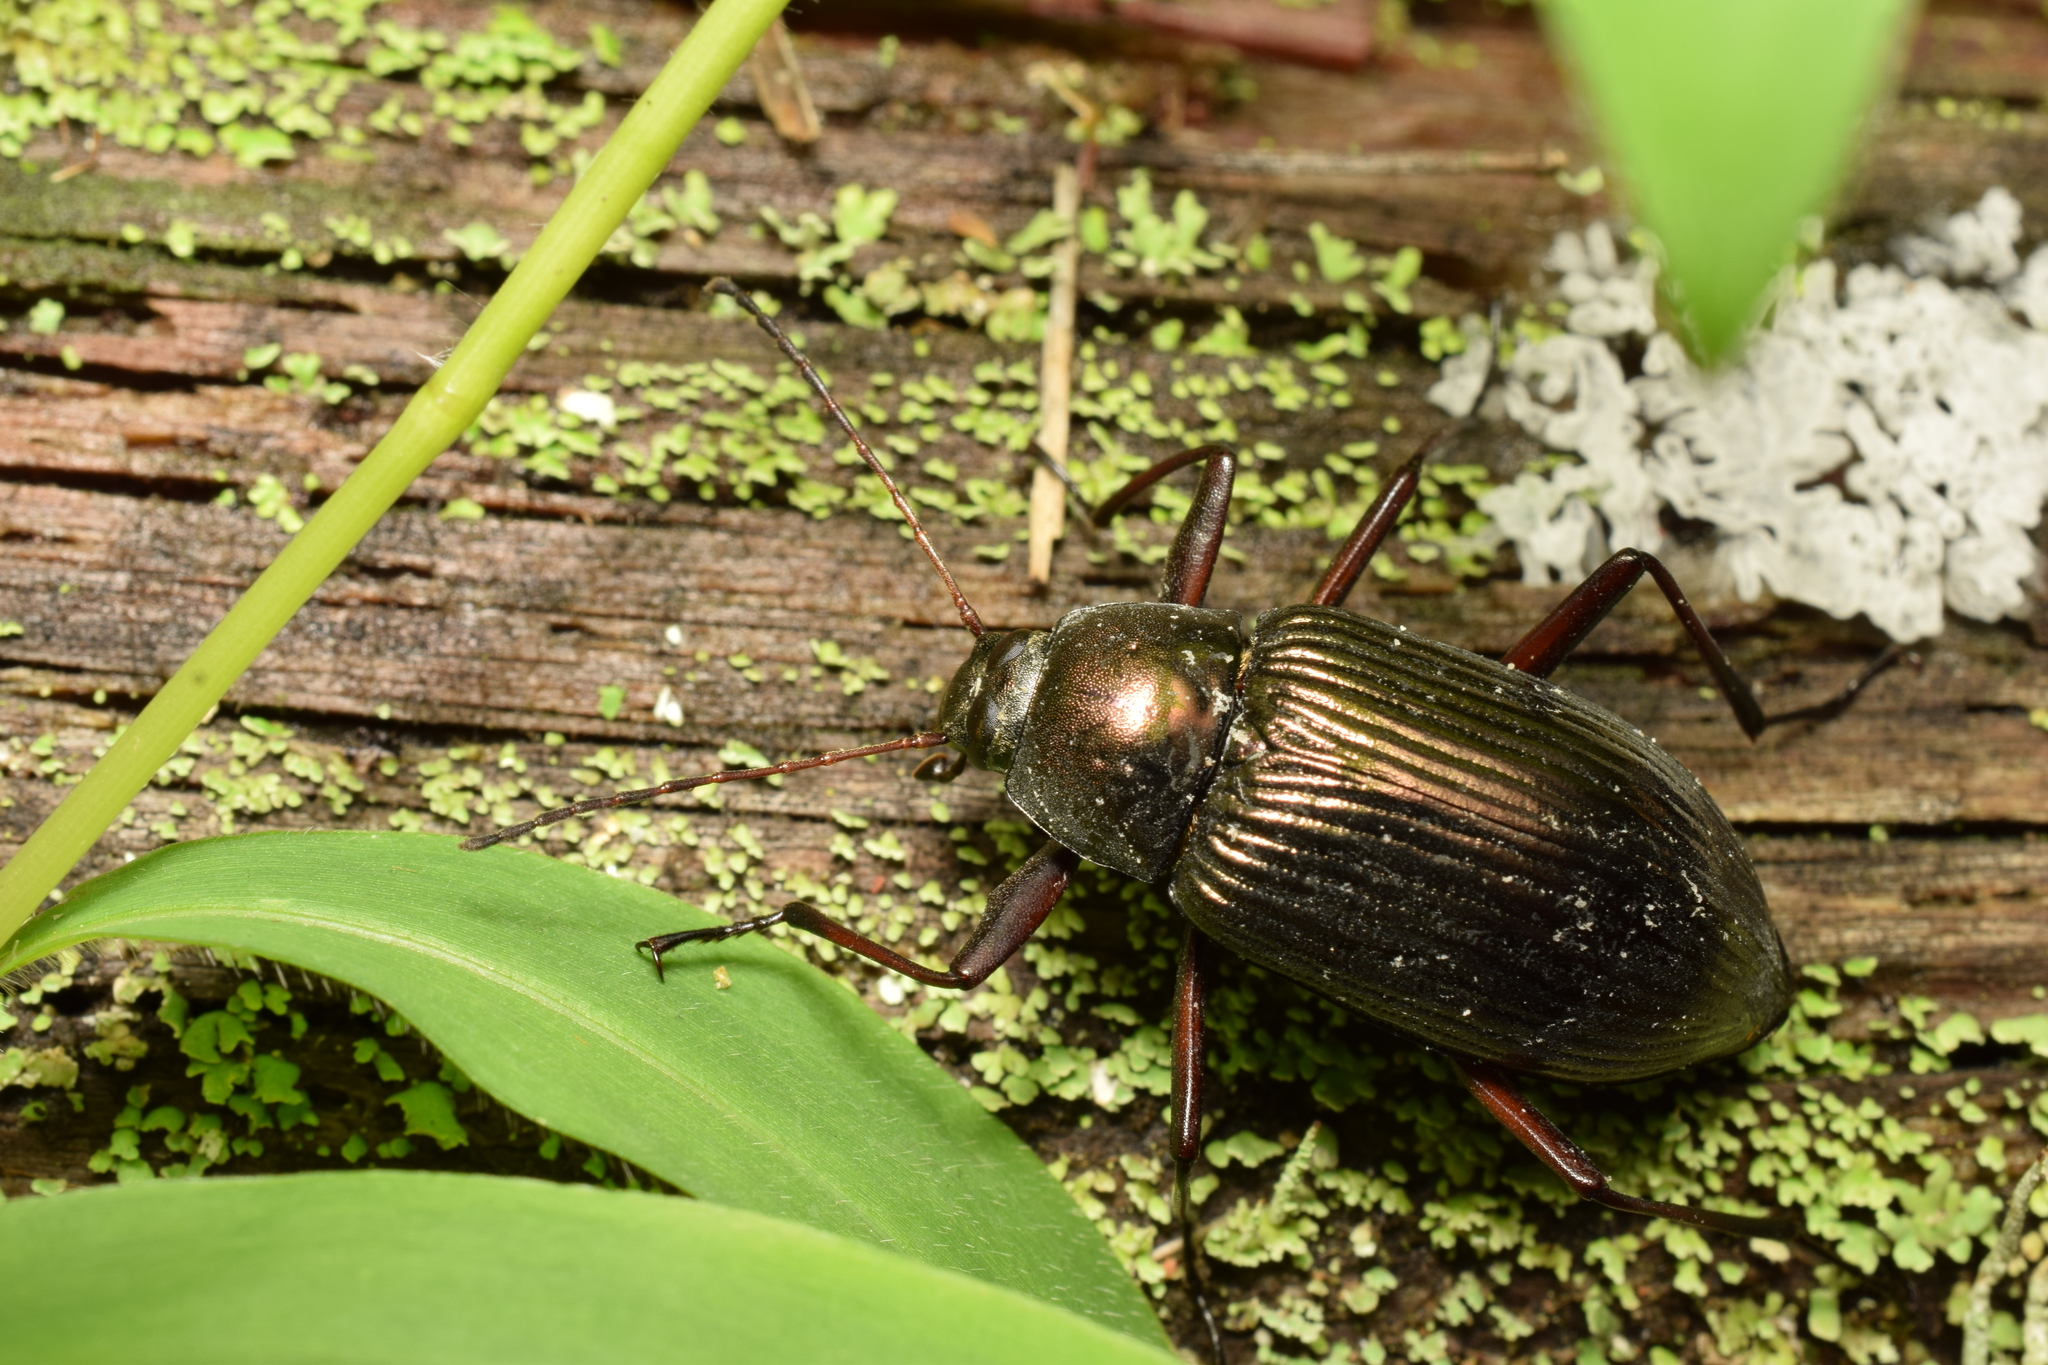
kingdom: Animalia
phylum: Arthropoda
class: Insecta
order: Coleoptera
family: Tenebrionidae
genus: Plesiophthalmus
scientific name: Plesiophthalmus
